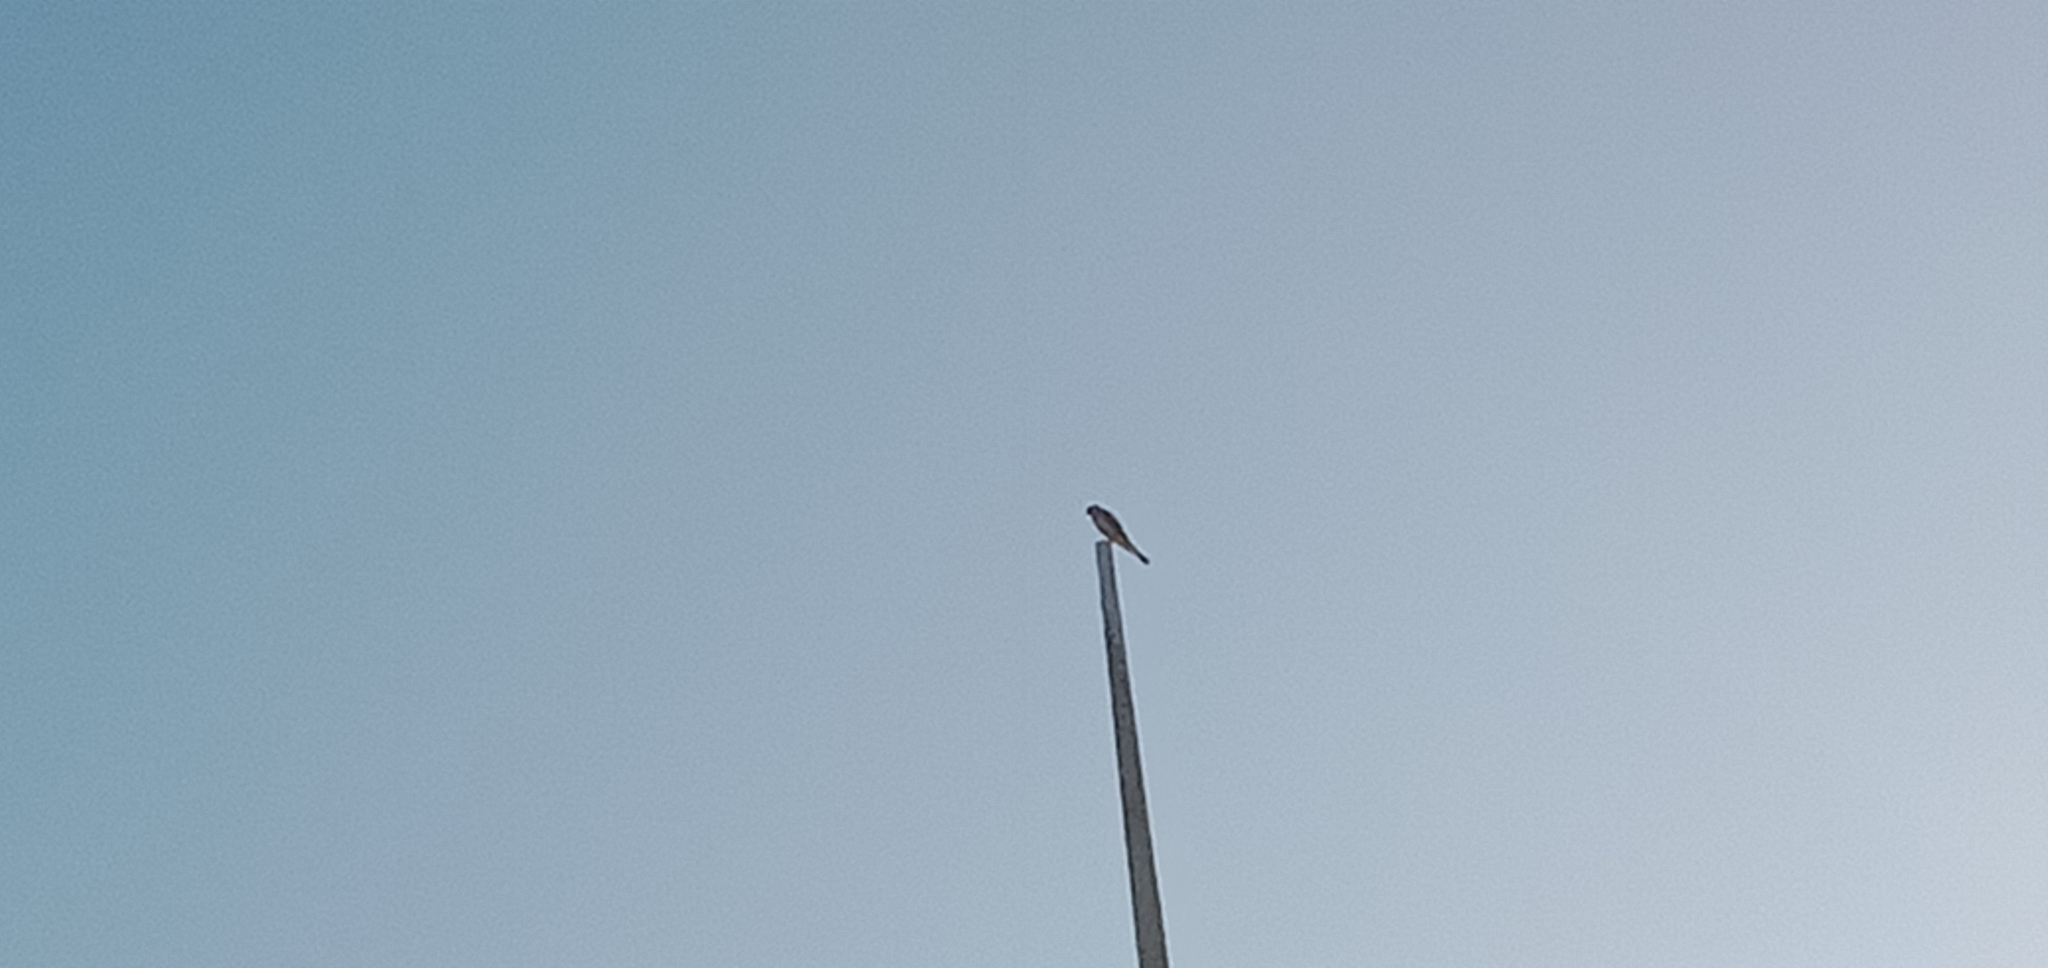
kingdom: Animalia
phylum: Chordata
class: Aves
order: Falconiformes
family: Falconidae
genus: Falco
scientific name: Falco cenchroides
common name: Nankeen kestrel
